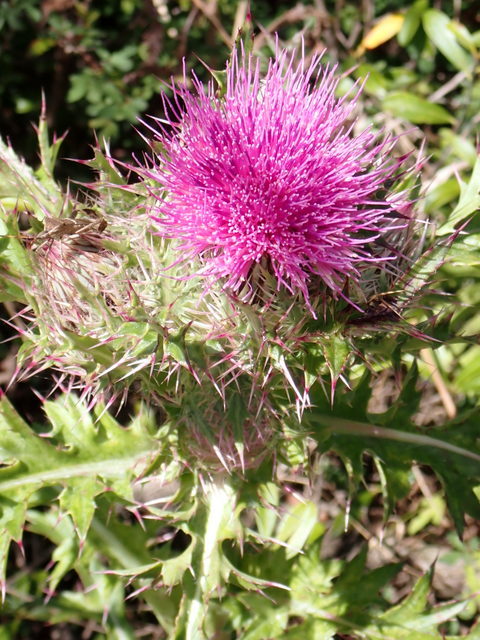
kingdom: Plantae
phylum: Tracheophyta
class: Magnoliopsida
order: Asterales
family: Asteraceae
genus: Cirsium
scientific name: Cirsium horridulum
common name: Bristly thistle
